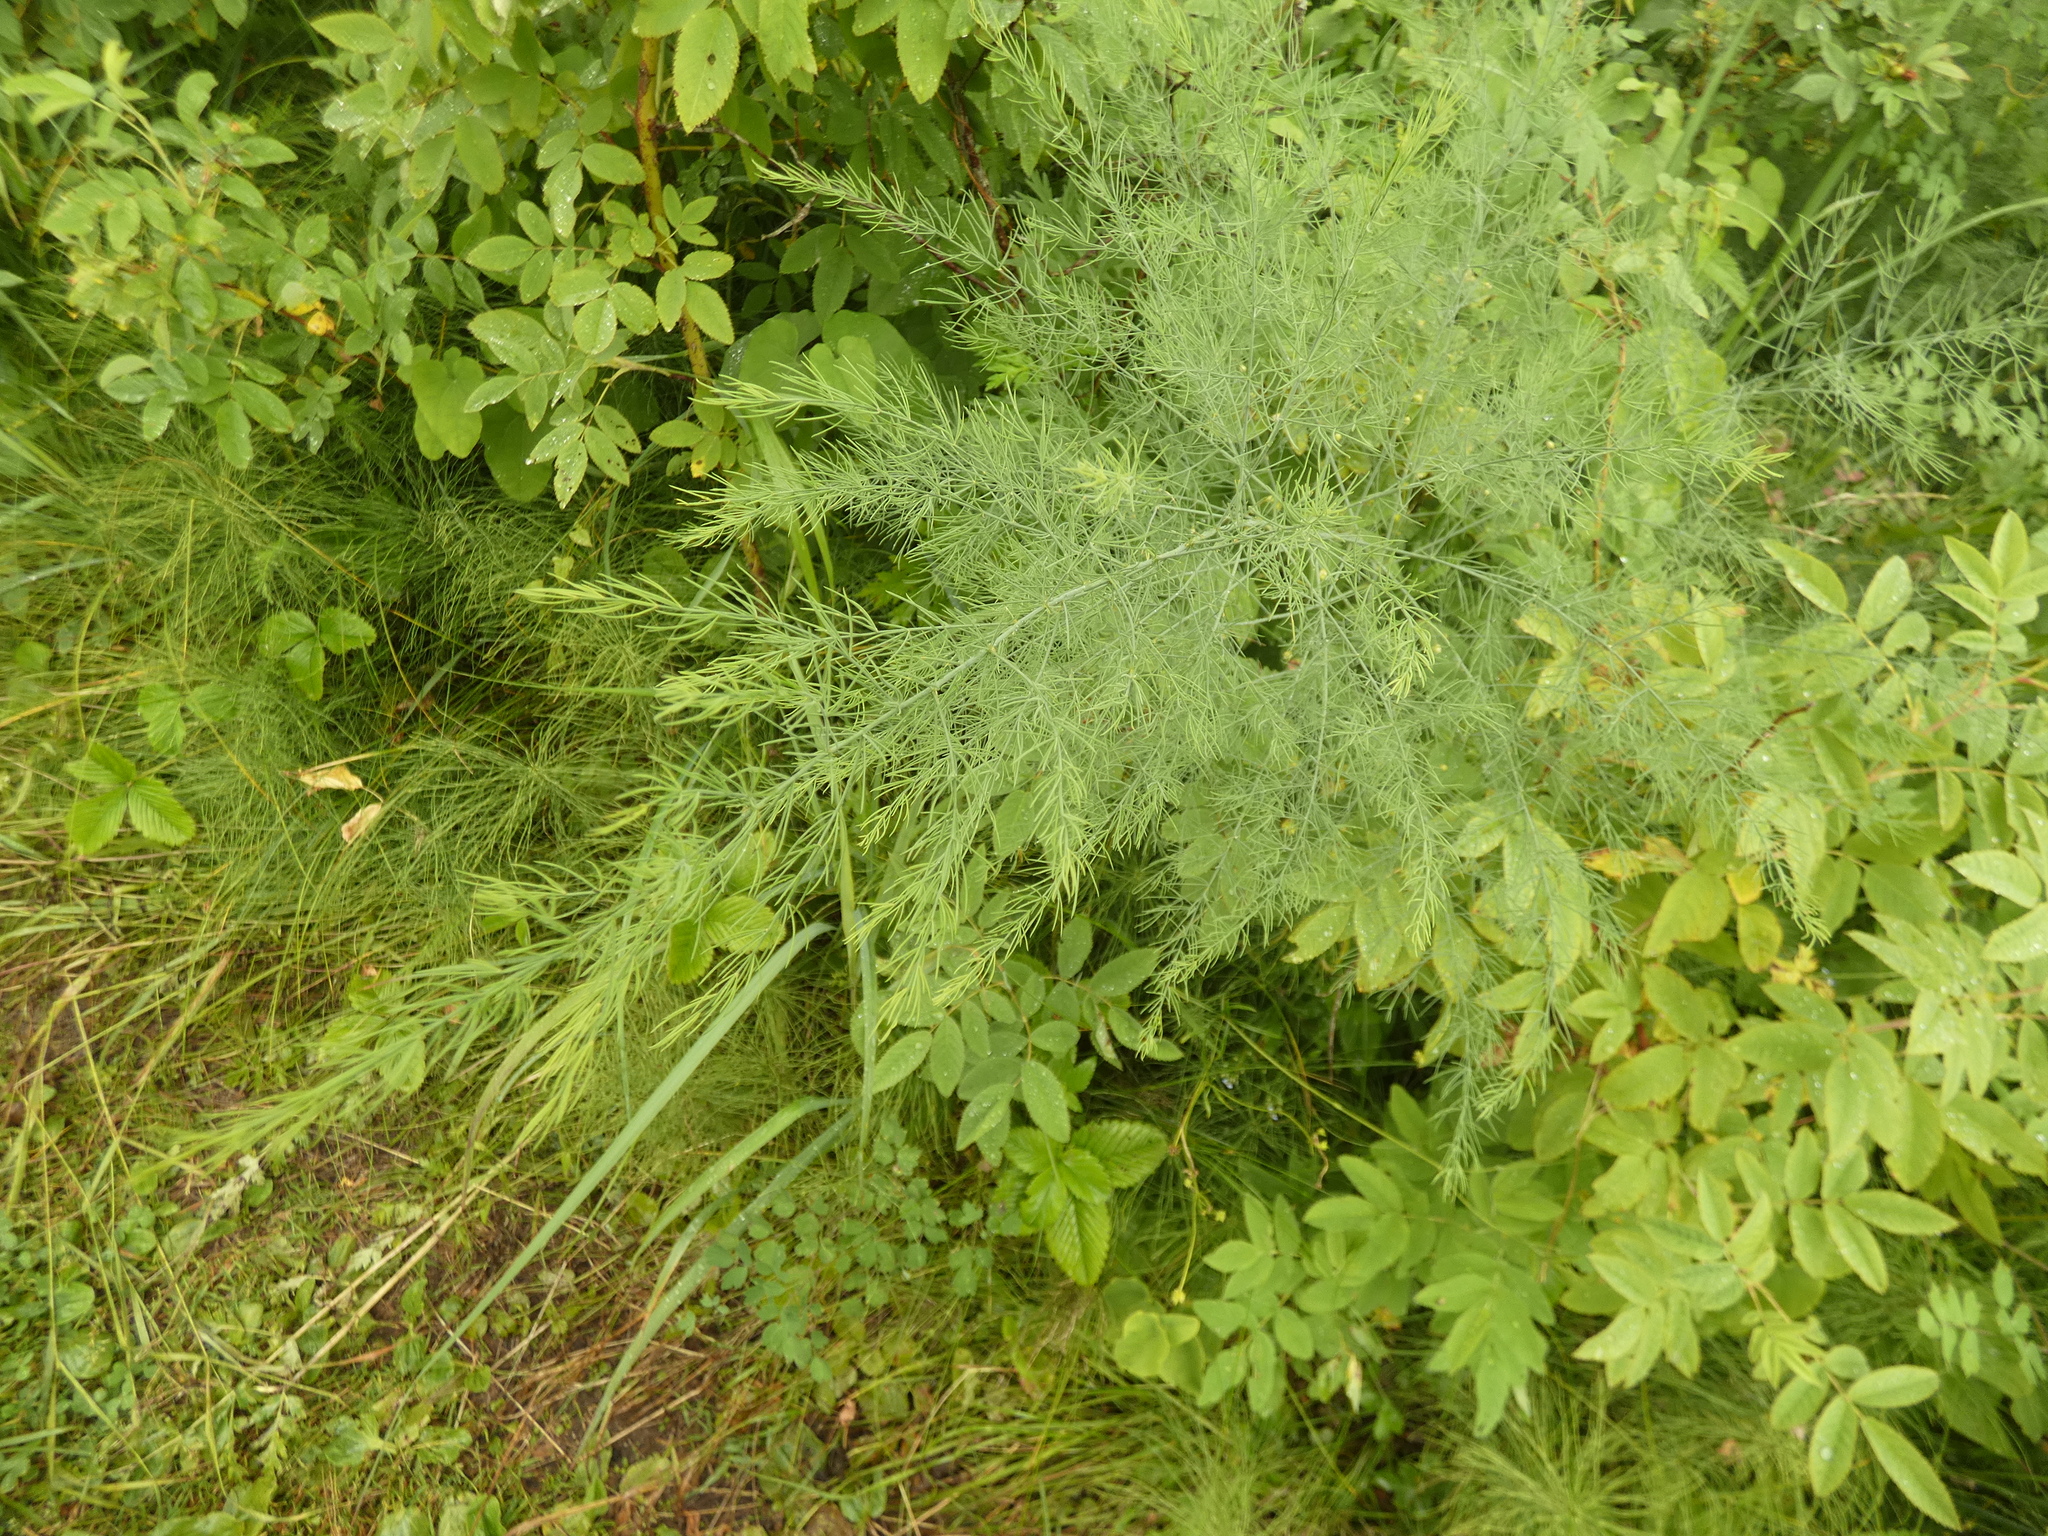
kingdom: Plantae
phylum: Tracheophyta
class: Liliopsida
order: Asparagales
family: Asparagaceae
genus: Asparagus
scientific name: Asparagus officinalis
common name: Garden asparagus
